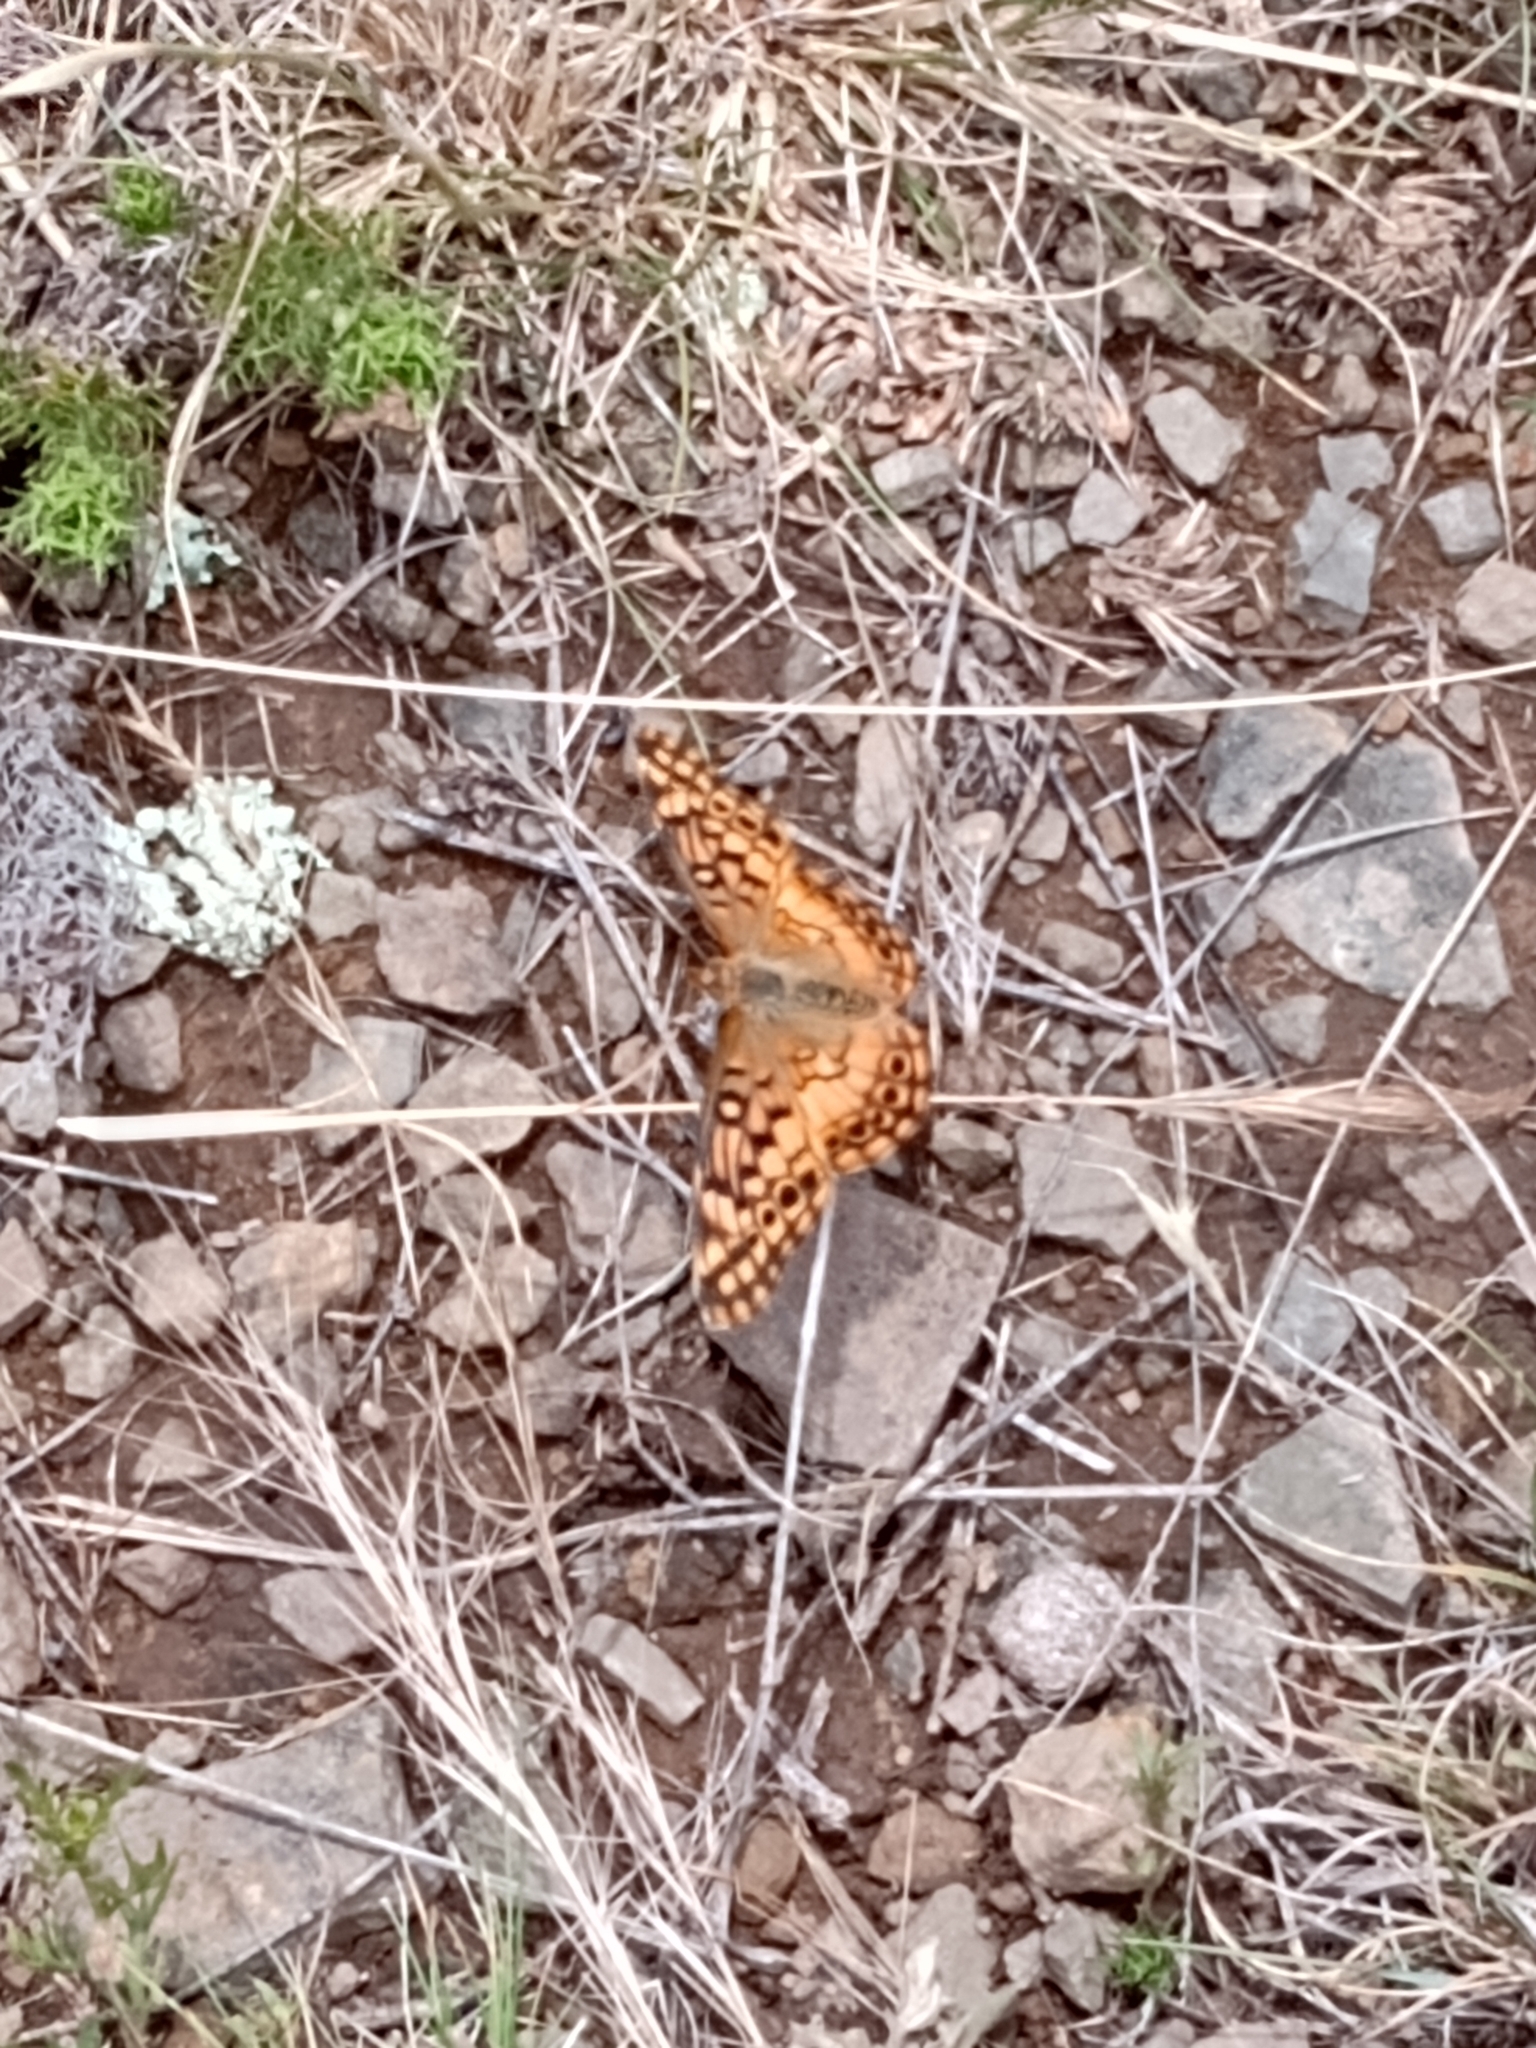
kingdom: Animalia
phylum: Arthropoda
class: Insecta
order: Lepidoptera
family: Nymphalidae
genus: Euptoieta
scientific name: Euptoieta hortensia
